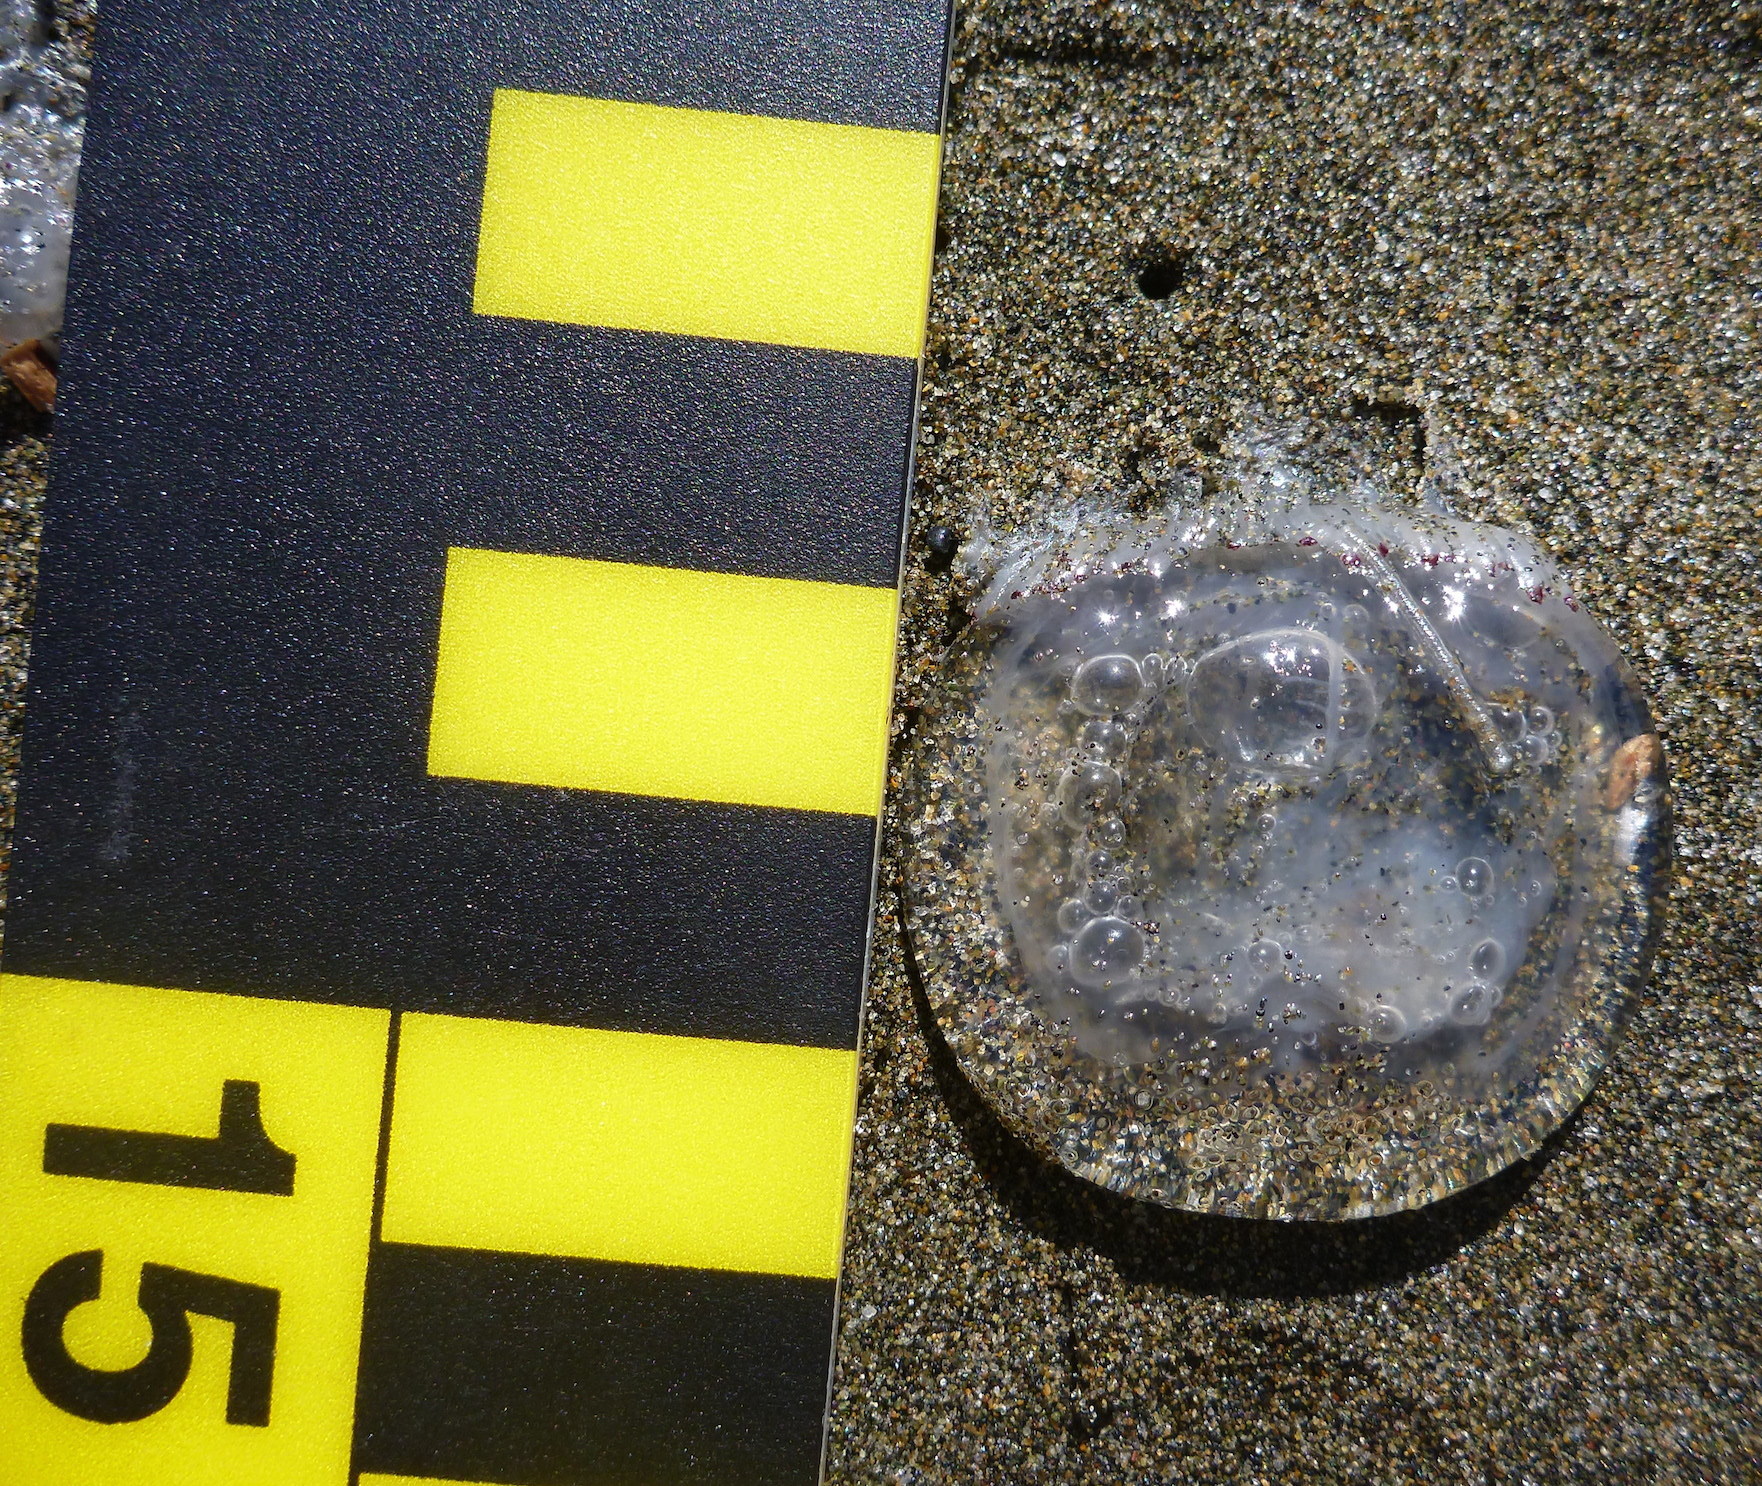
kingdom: Animalia
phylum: Cnidaria
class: Hydrozoa
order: Anthoathecata
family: Corynidae
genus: Polyorchis
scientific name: Polyorchis penicillatus
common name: Penicillate jellyfish
